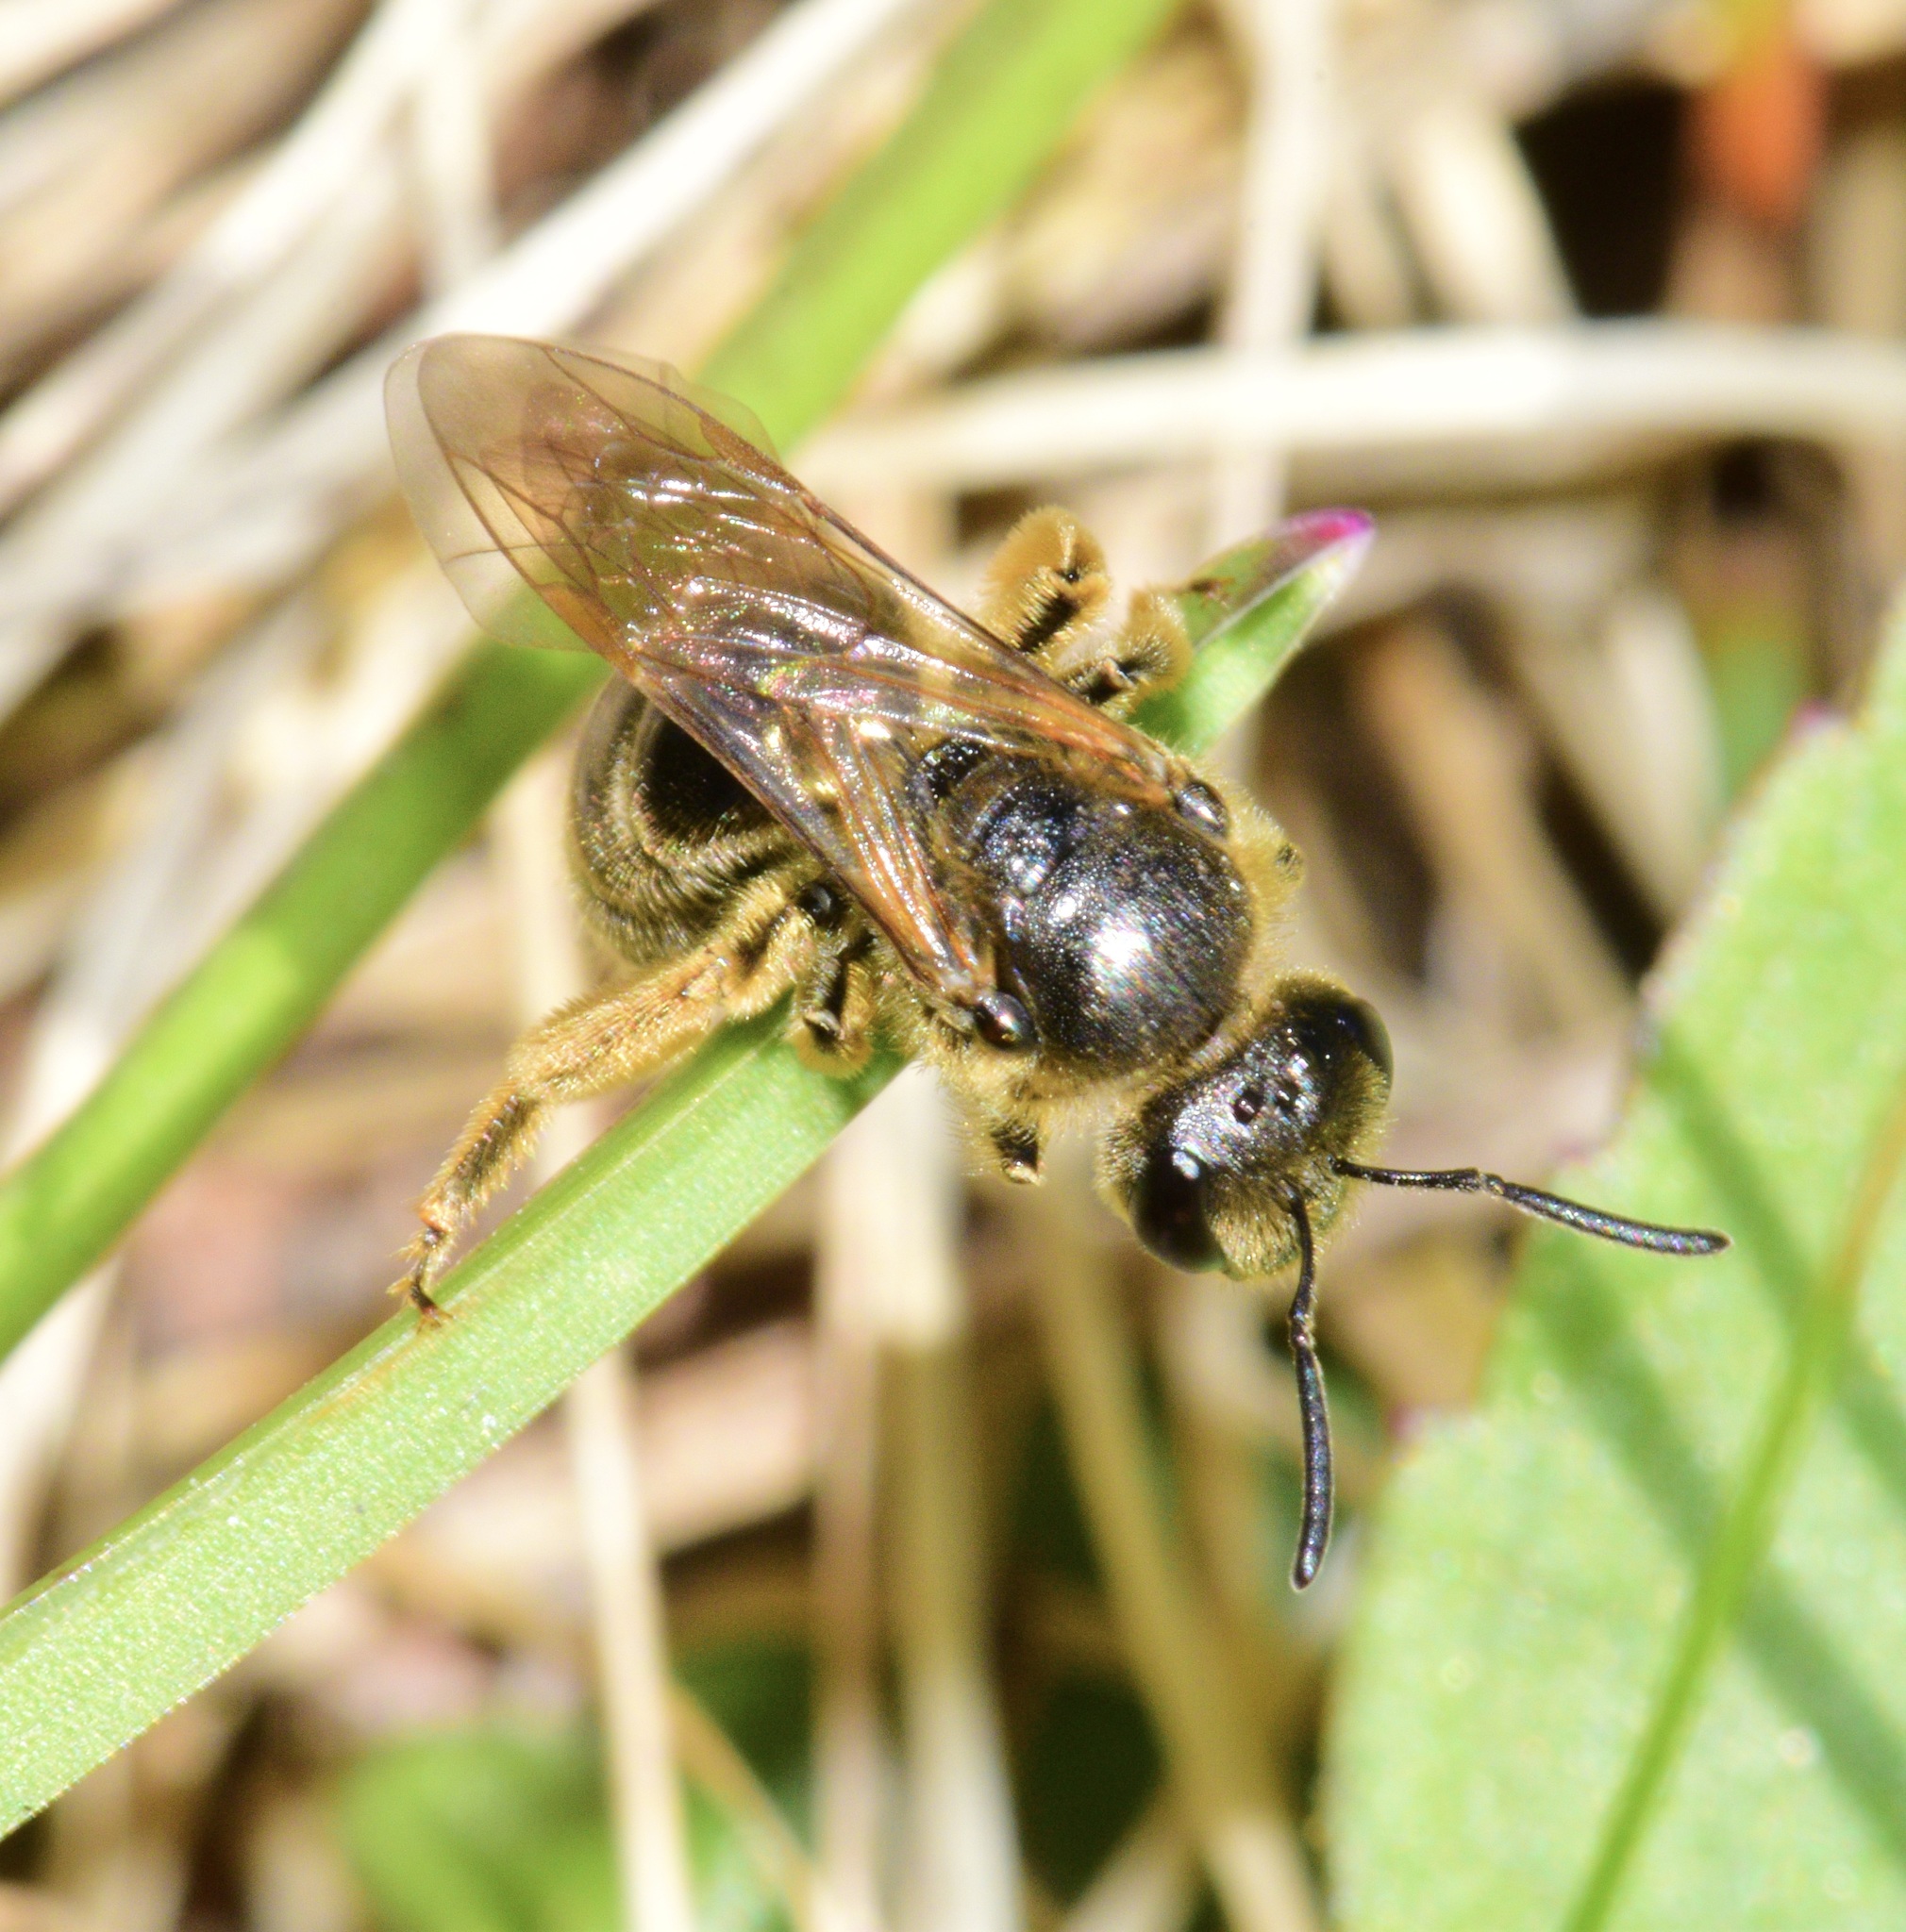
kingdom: Animalia
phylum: Arthropoda
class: Insecta
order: Hymenoptera
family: Halictidae
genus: Lasioglossum
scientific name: Lasioglossum quebecense
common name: Quebec sweat bee
